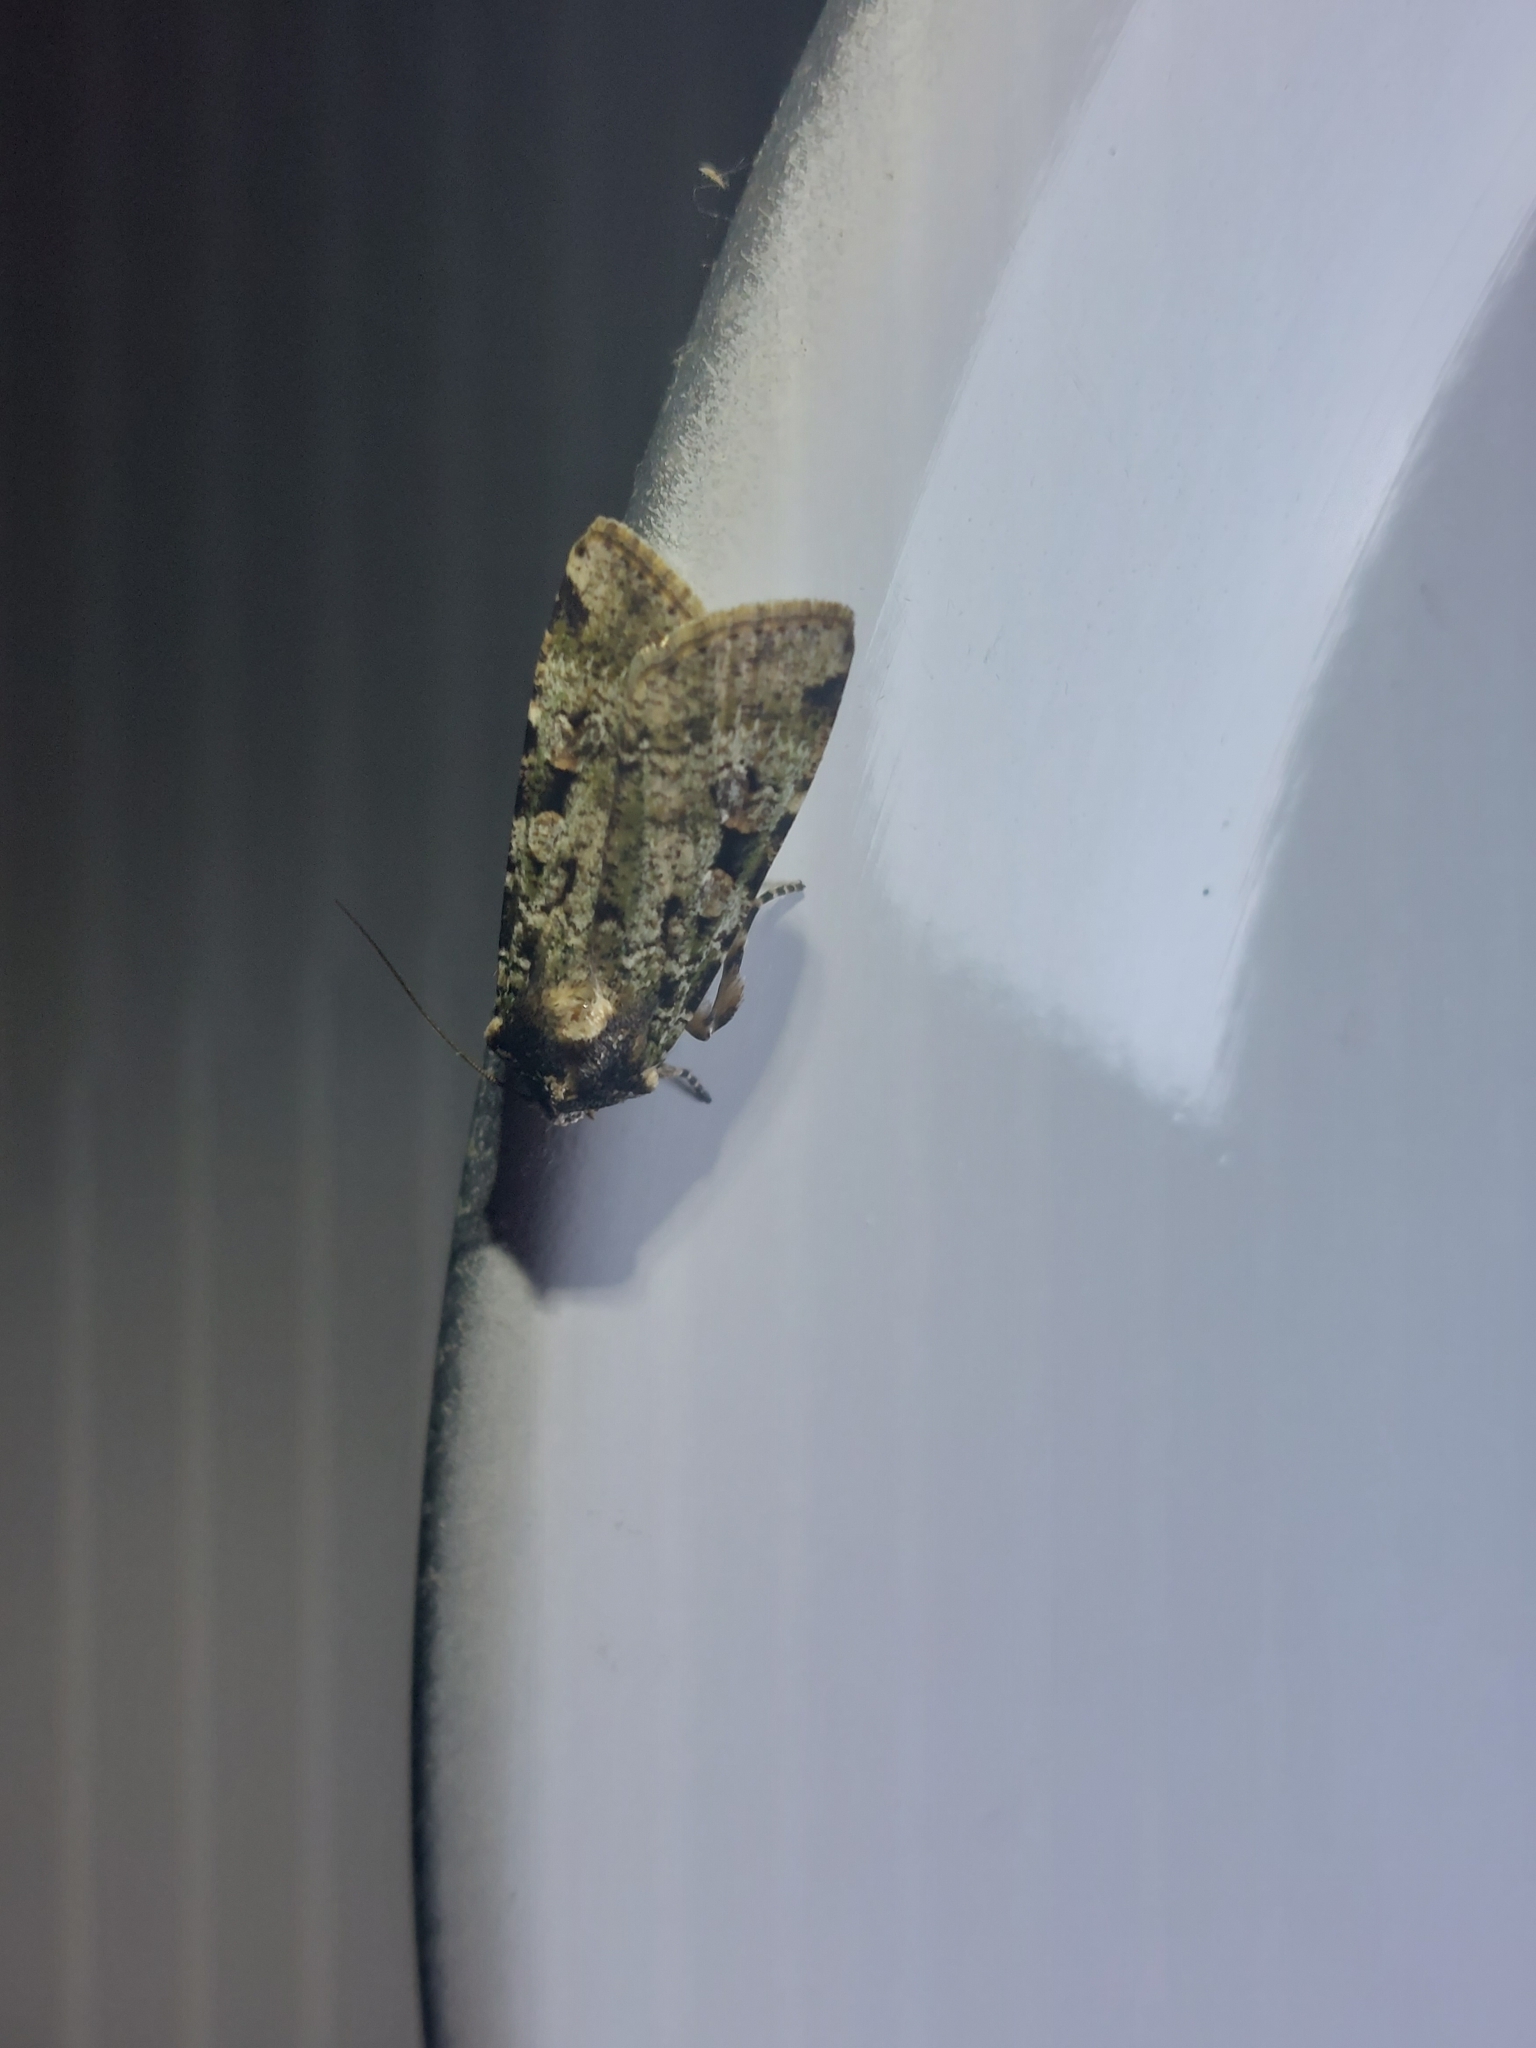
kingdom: Animalia
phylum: Arthropoda
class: Insecta
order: Lepidoptera
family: Noctuidae
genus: Mentaxya
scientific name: Mentaxya ignicollis
